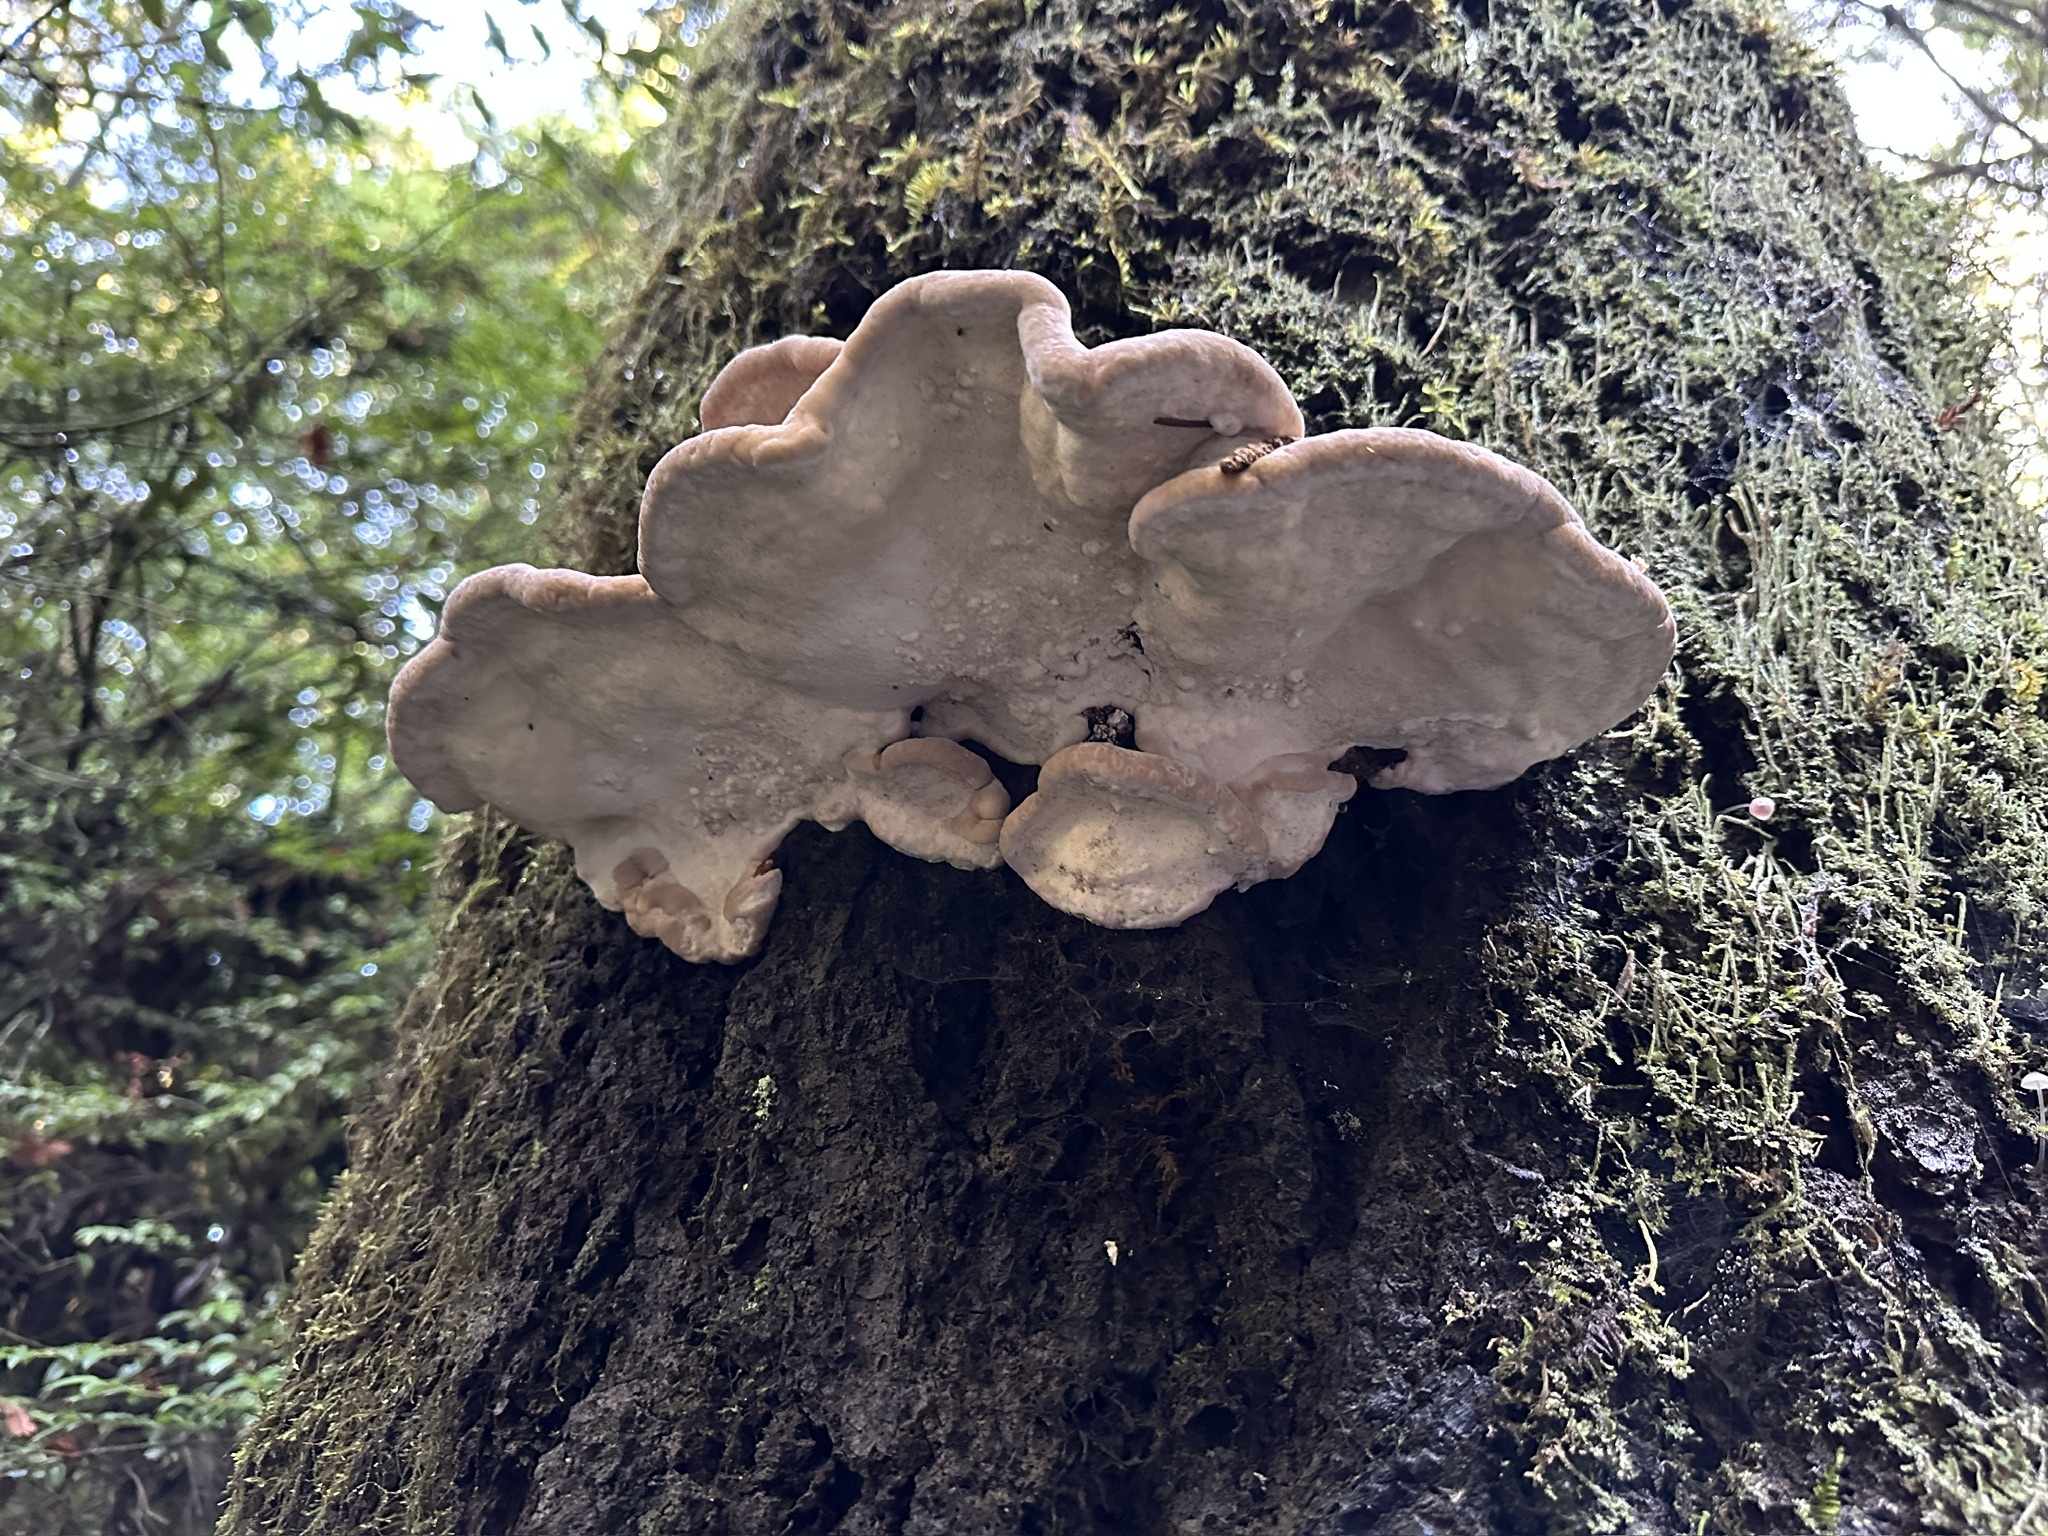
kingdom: Fungi
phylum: Basidiomycota
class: Agaricomycetes
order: Polyporales
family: Fomitopsidaceae
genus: Fomitopsis
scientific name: Fomitopsis mounceae
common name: Northern red belt
